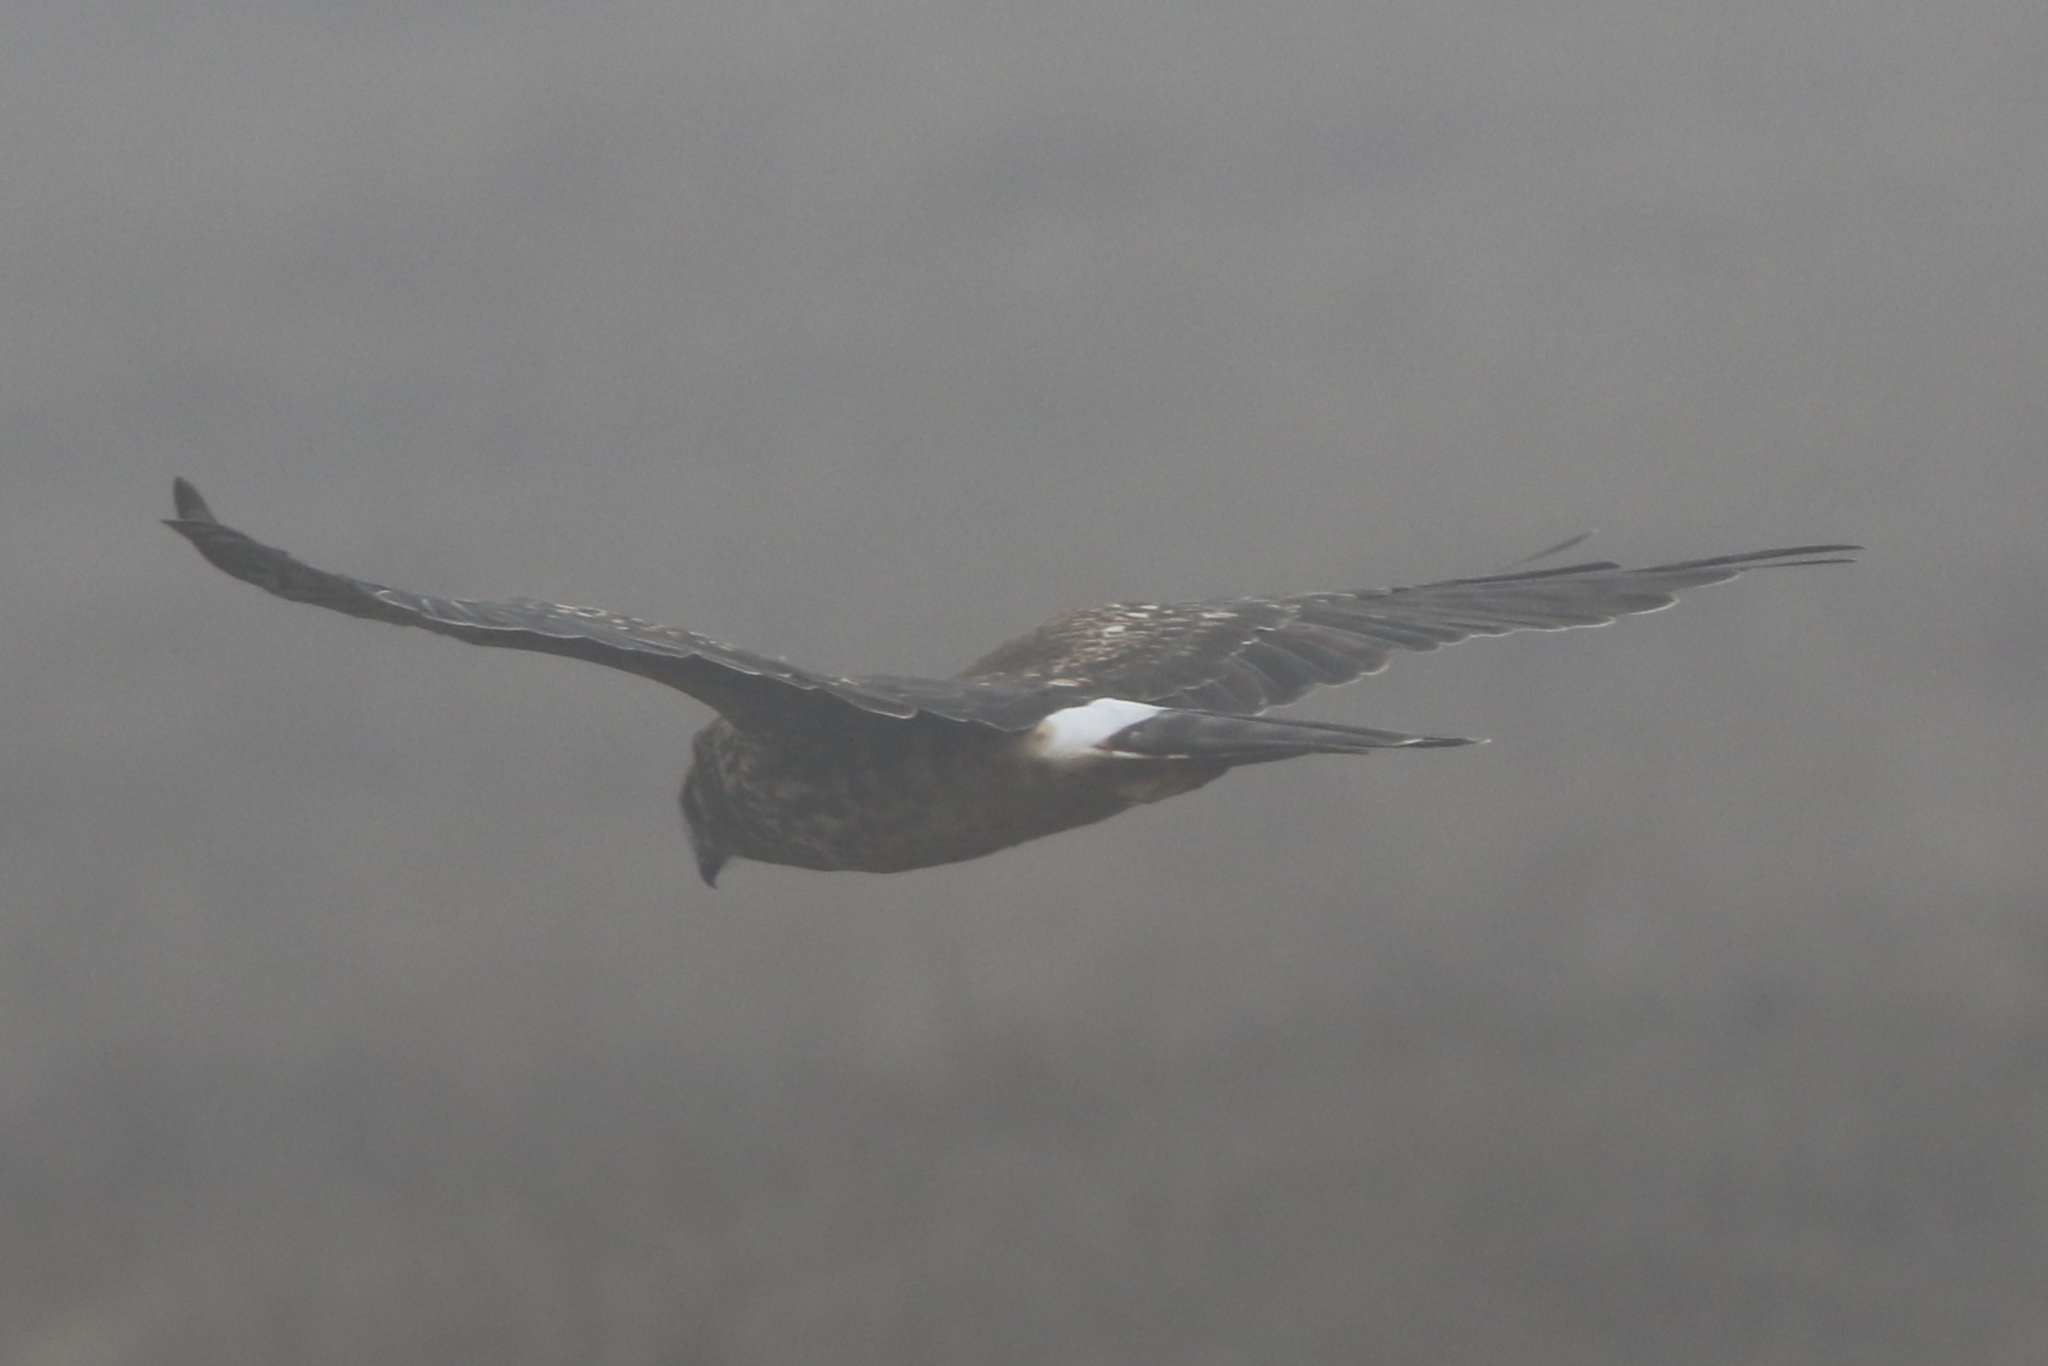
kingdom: Animalia
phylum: Chordata
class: Aves
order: Accipitriformes
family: Accipitridae
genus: Circus
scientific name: Circus cyaneus
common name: Hen harrier
